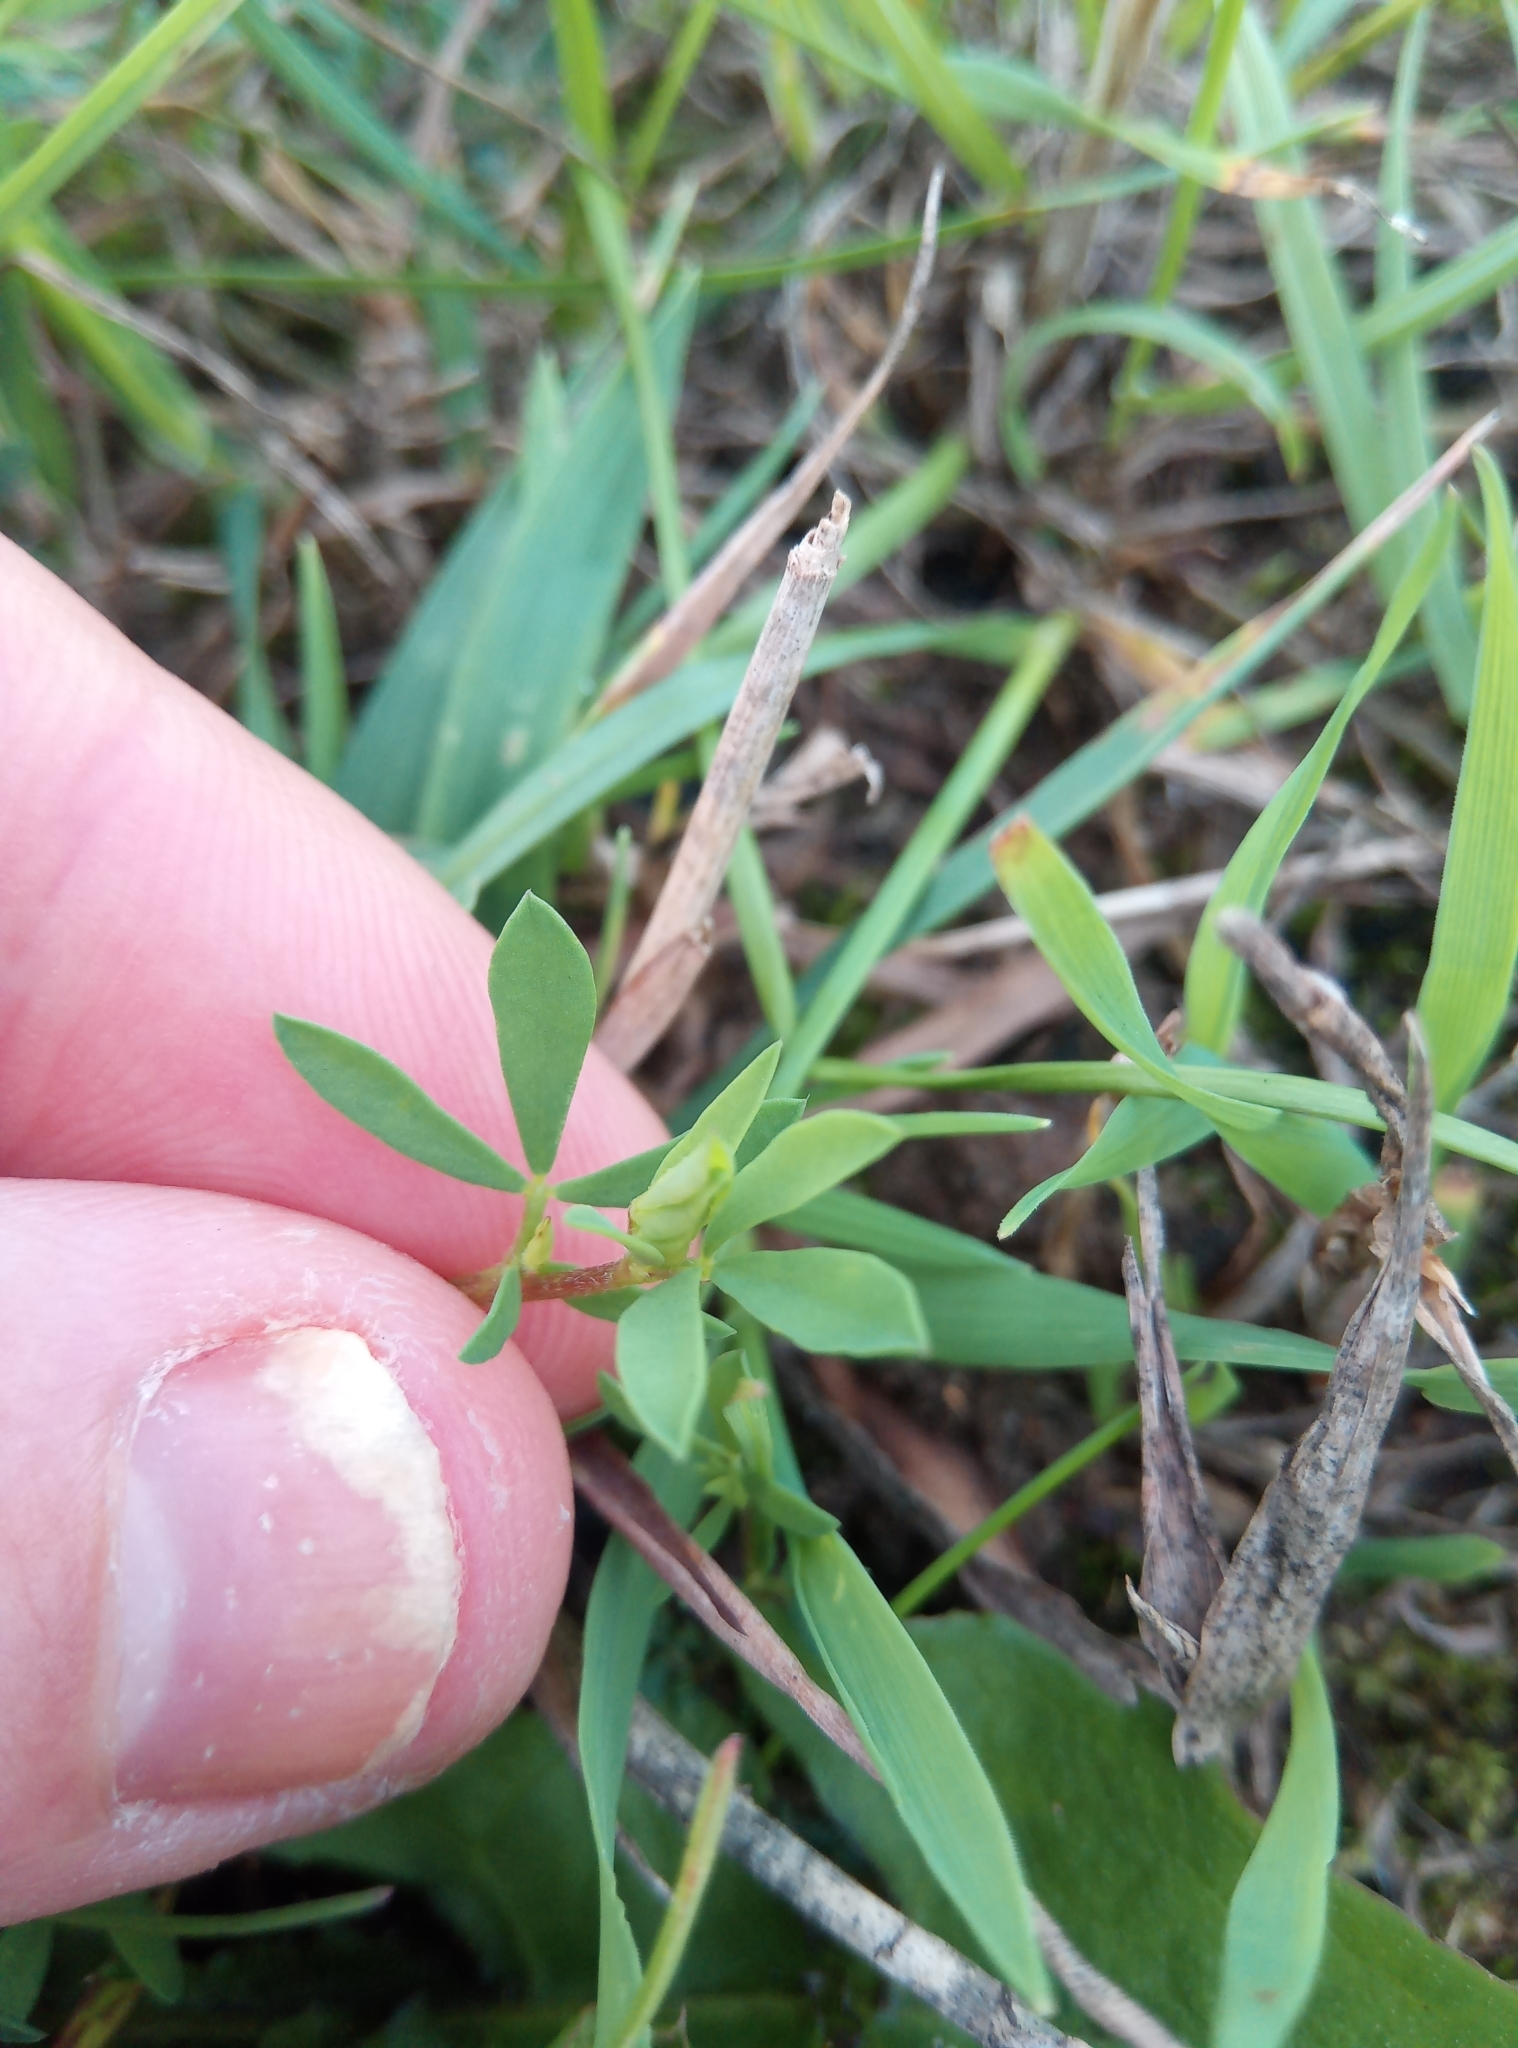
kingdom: Plantae
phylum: Tracheophyta
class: Magnoliopsida
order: Fabales
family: Fabaceae
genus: Lotus
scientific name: Lotus tenuis
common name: Narrow-leaved bird's-foot-trefoil
